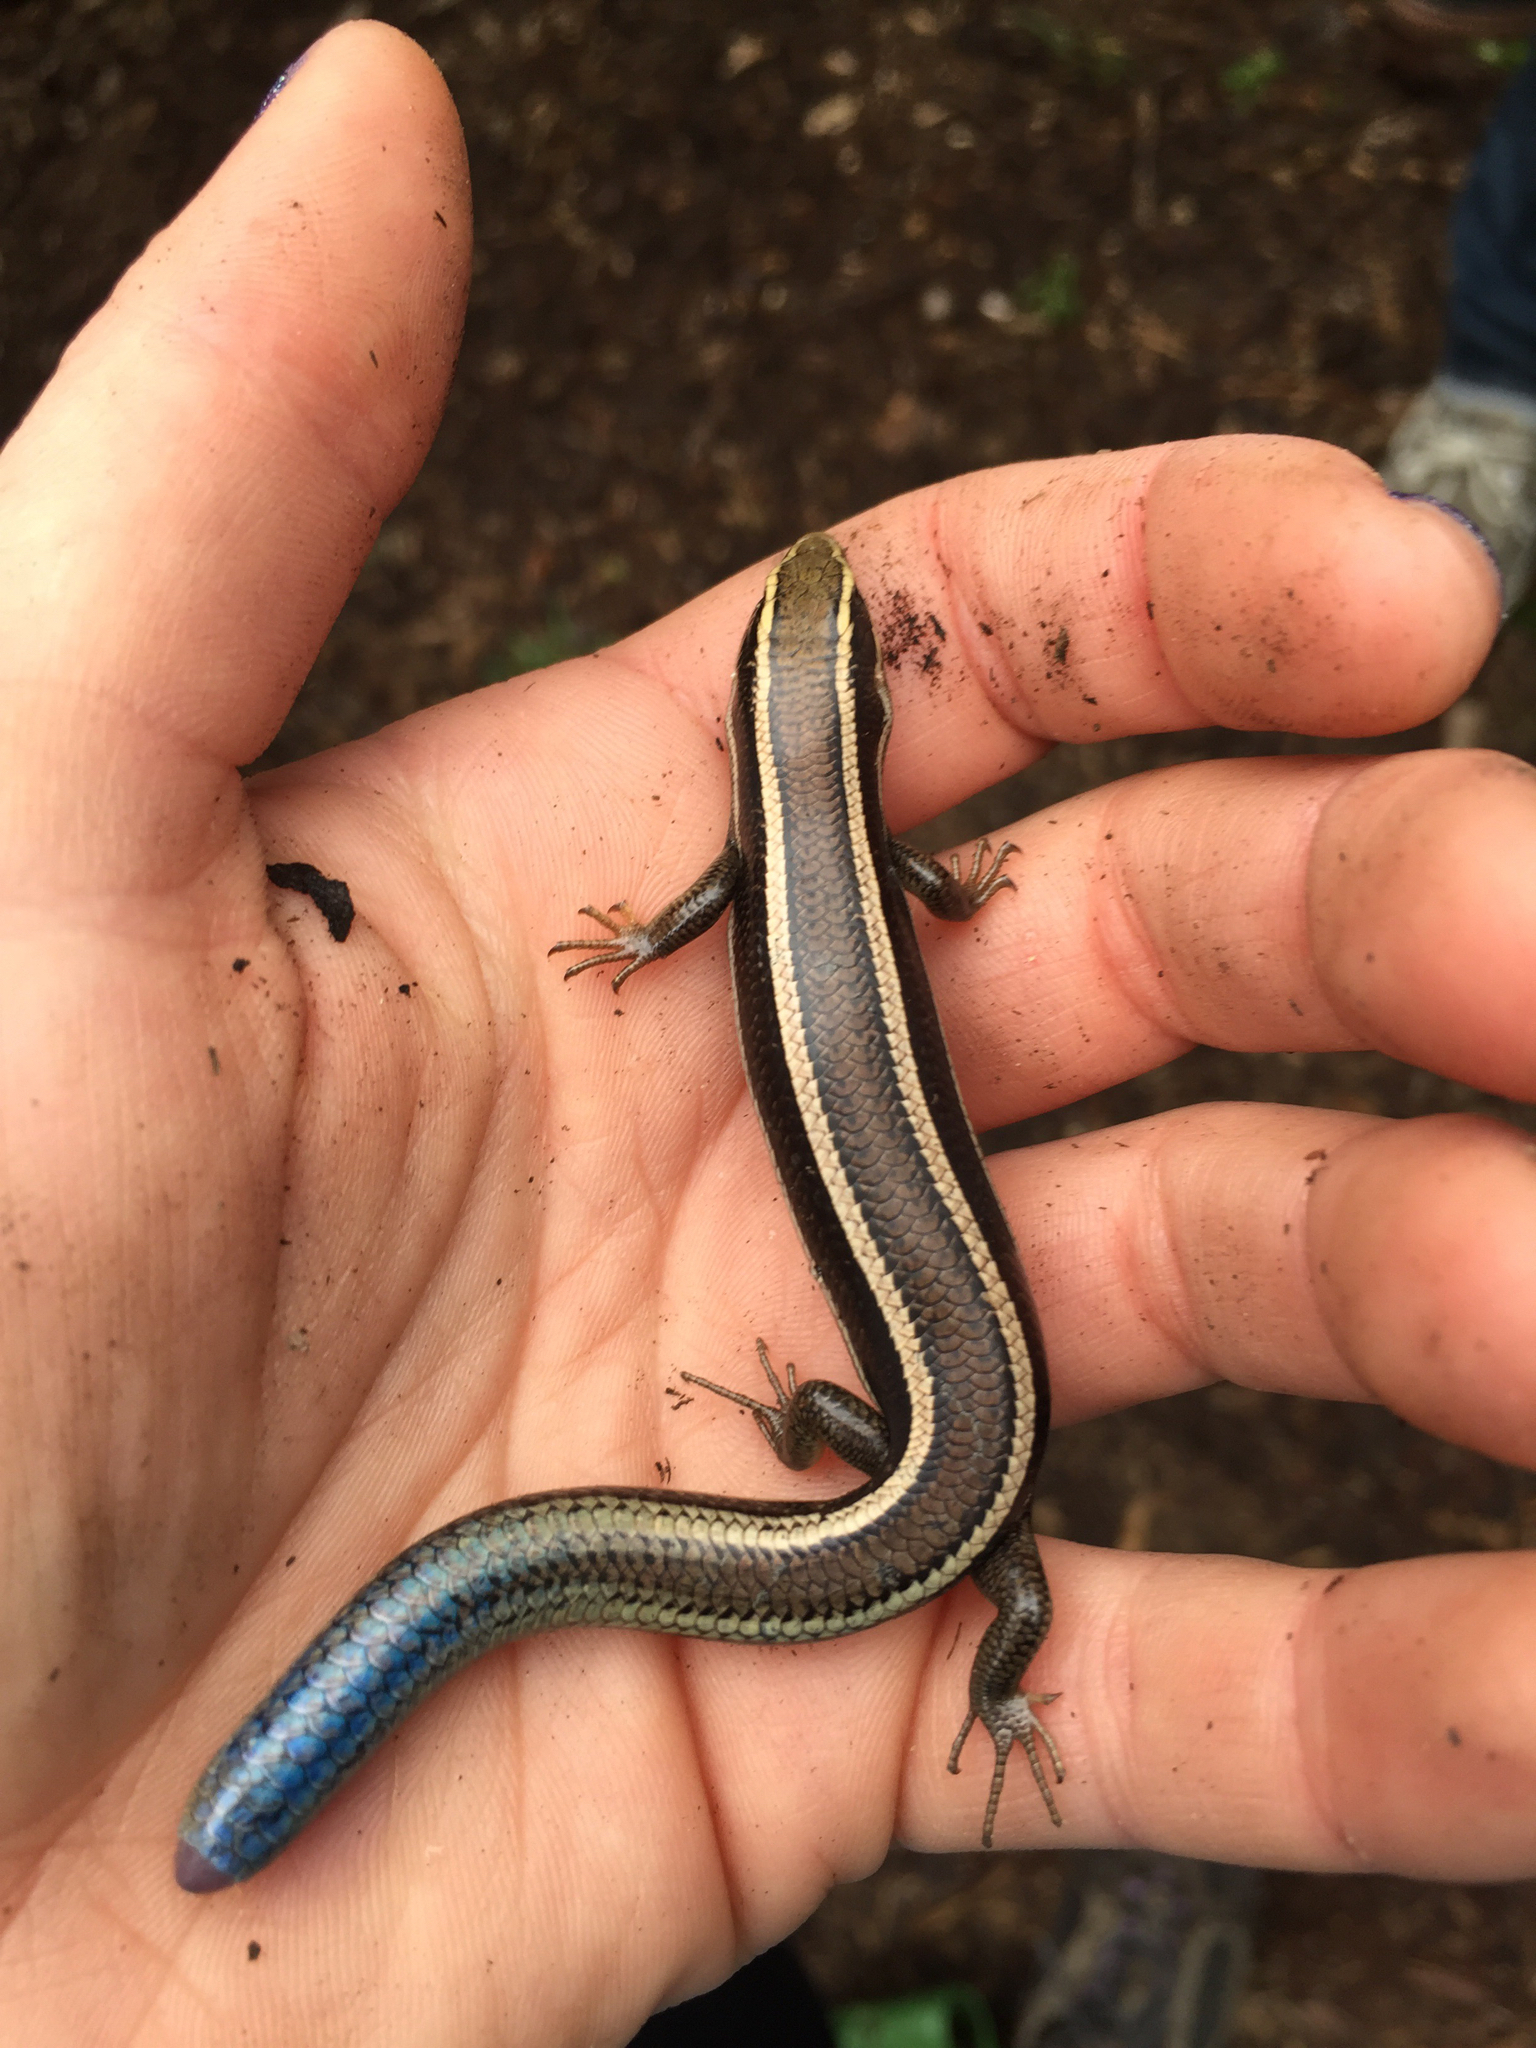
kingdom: Animalia
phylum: Chordata
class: Squamata
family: Scincidae
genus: Plestiodon
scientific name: Plestiodon skiltonianus
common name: Coronado island skink [interparietalis]
